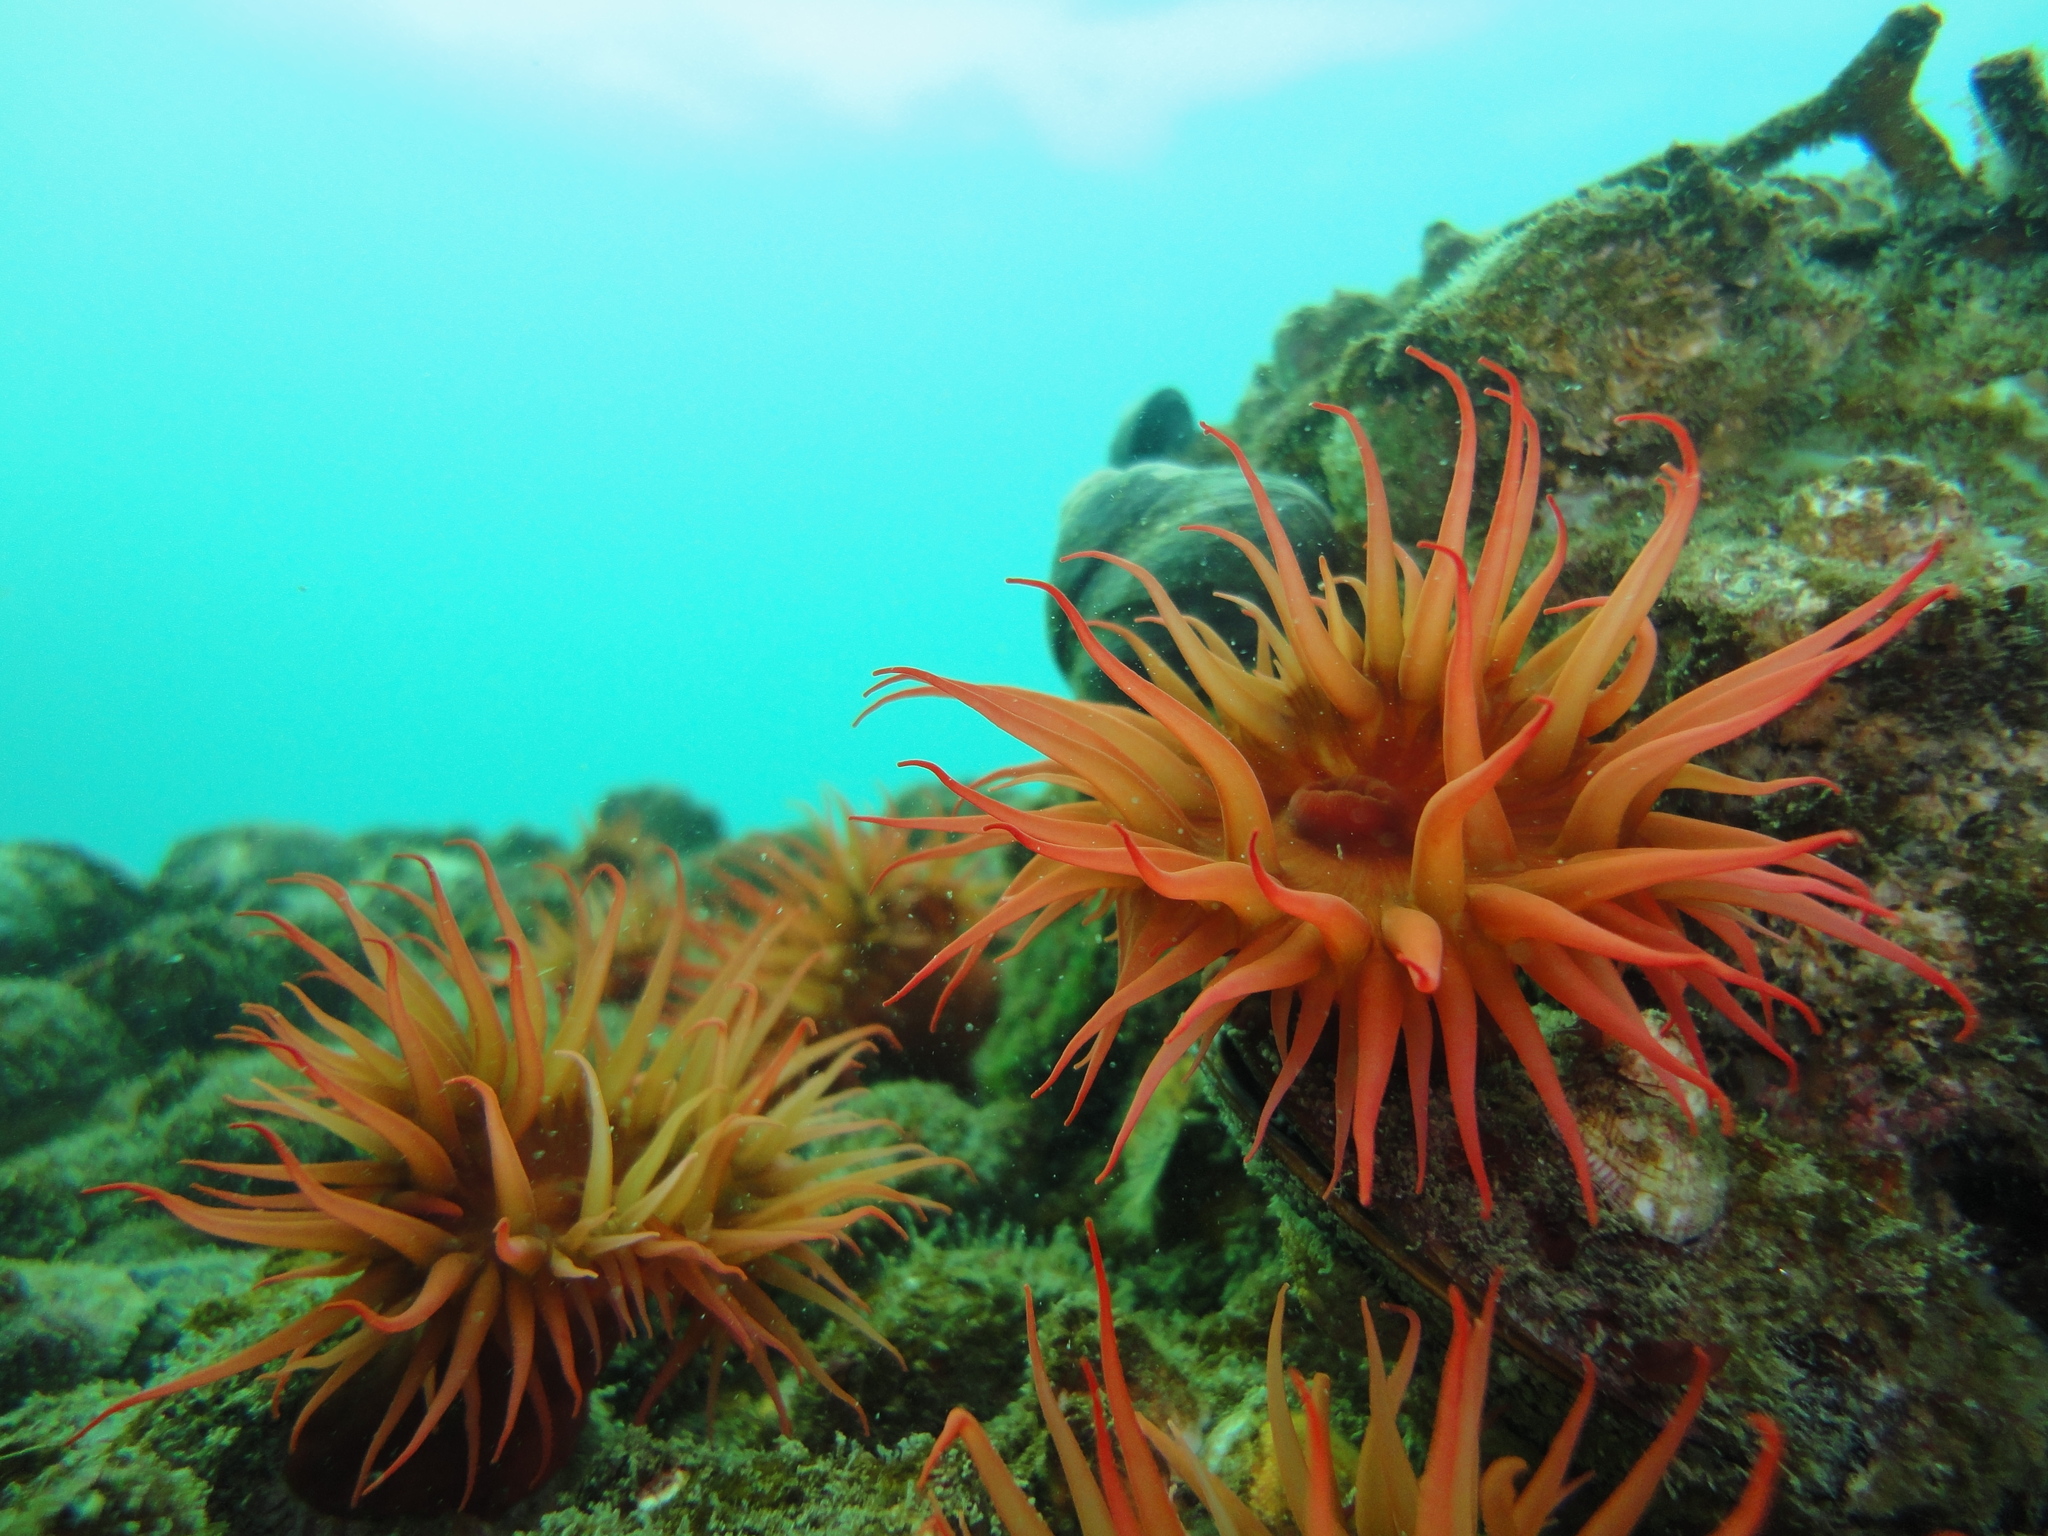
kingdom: Animalia
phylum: Cnidaria
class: Anthozoa
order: Actiniaria
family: Actiniidae
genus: Anemonia
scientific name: Anemonia alicemartinae
